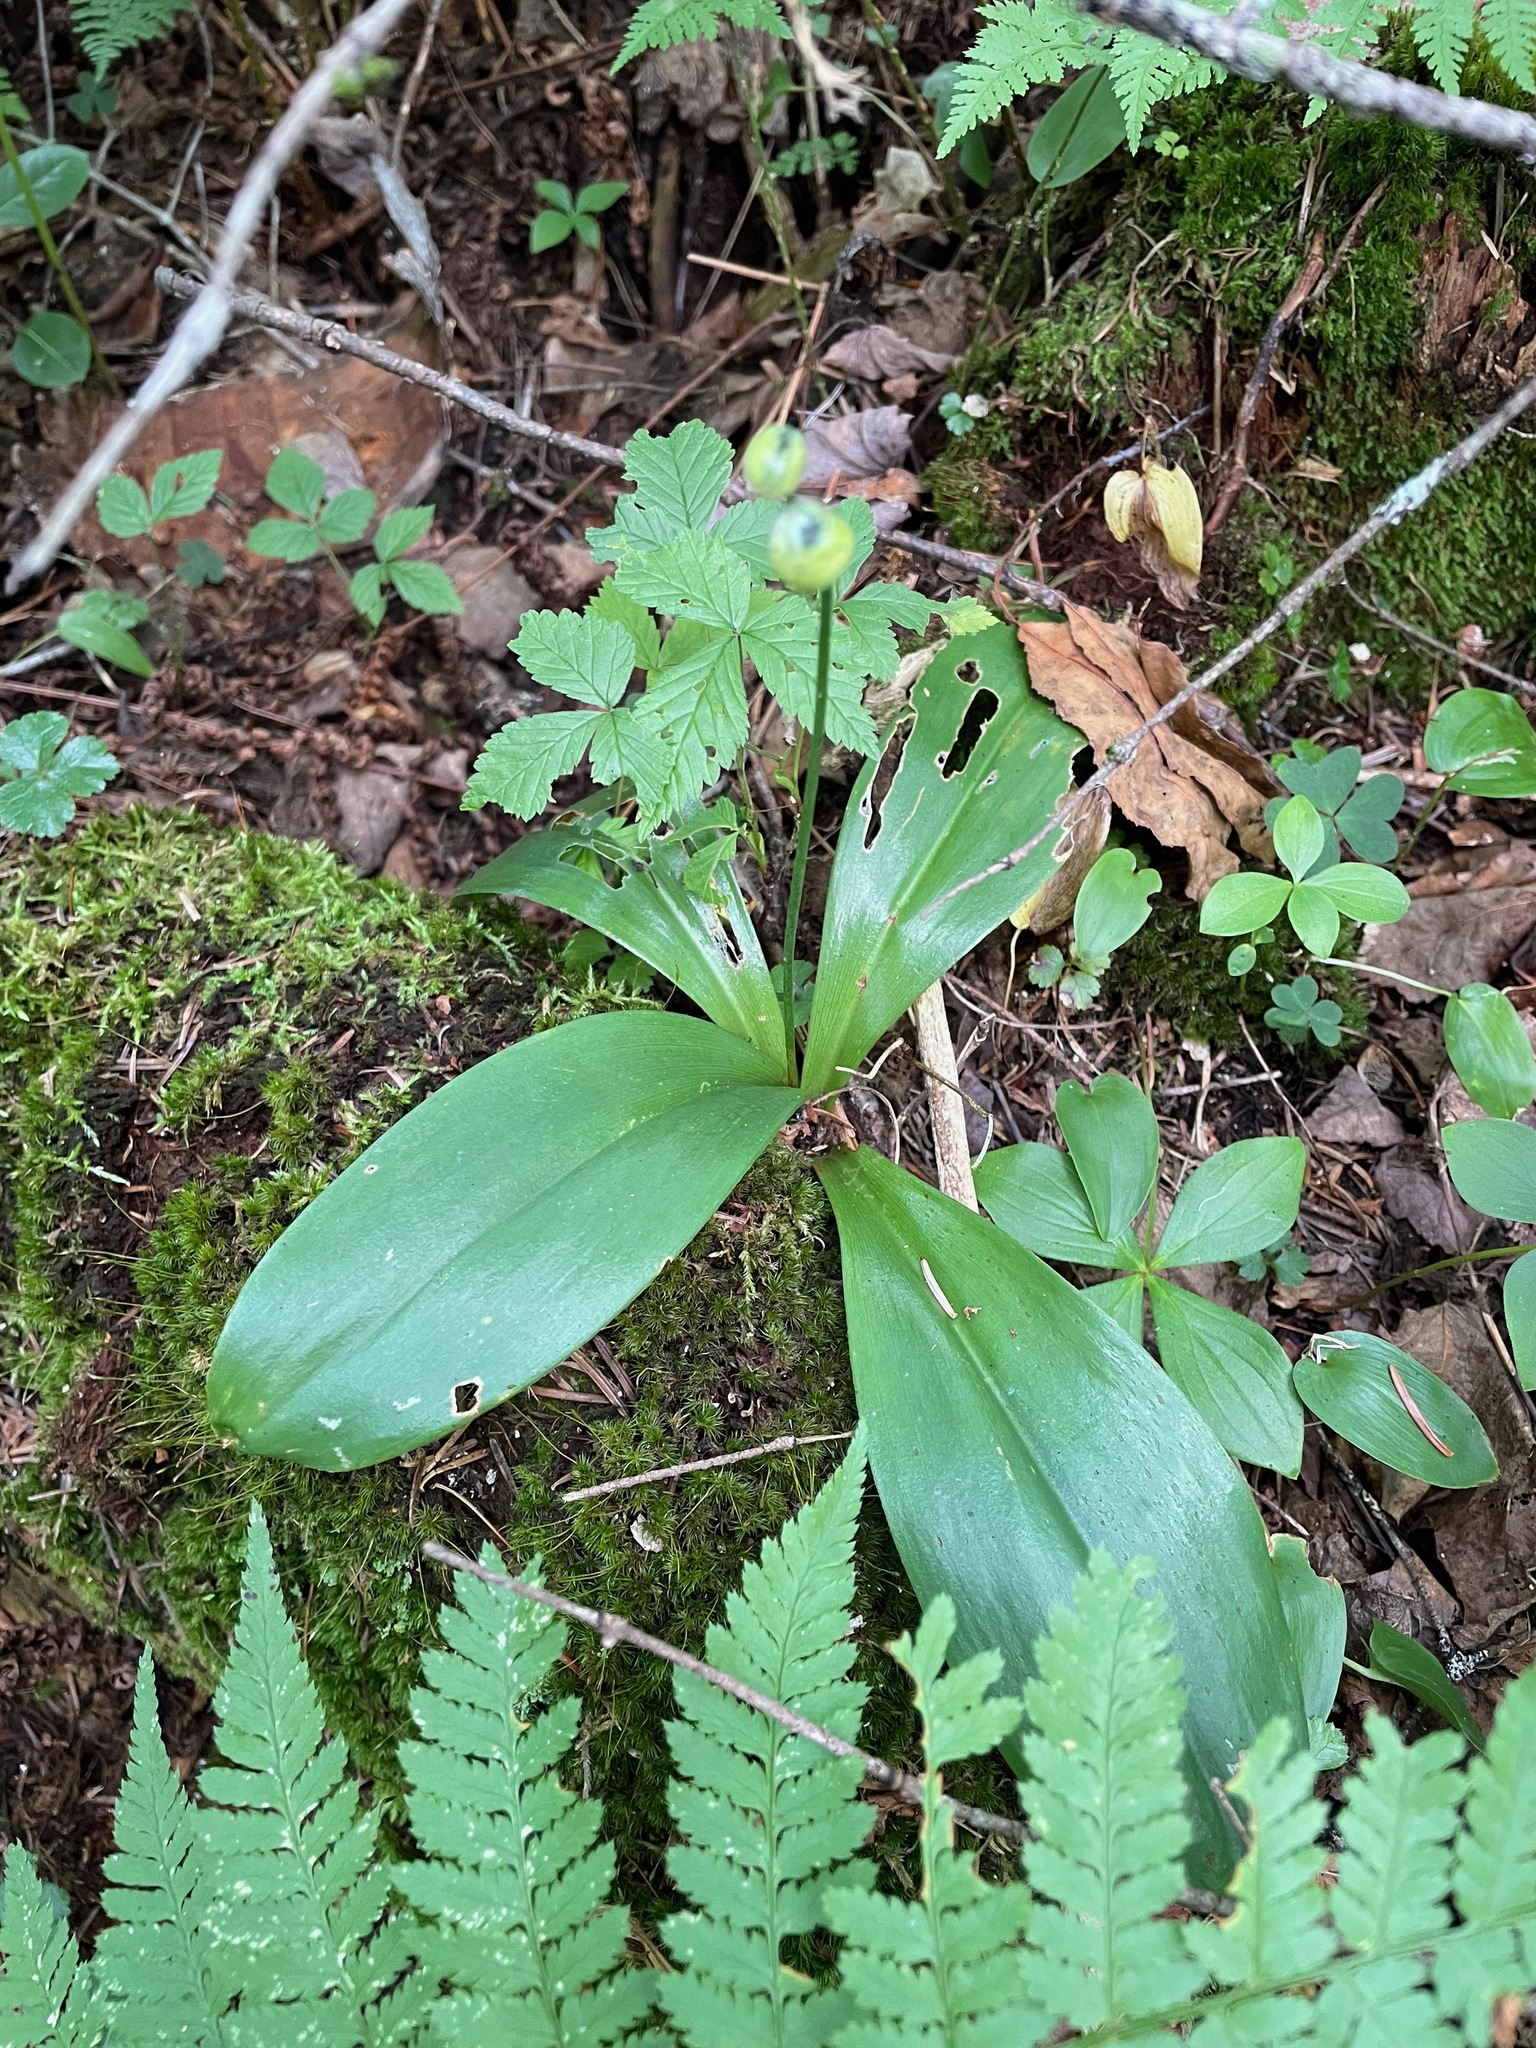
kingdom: Plantae
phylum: Tracheophyta
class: Liliopsida
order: Liliales
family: Liliaceae
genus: Clintonia
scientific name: Clintonia borealis
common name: Yellow clintonia
